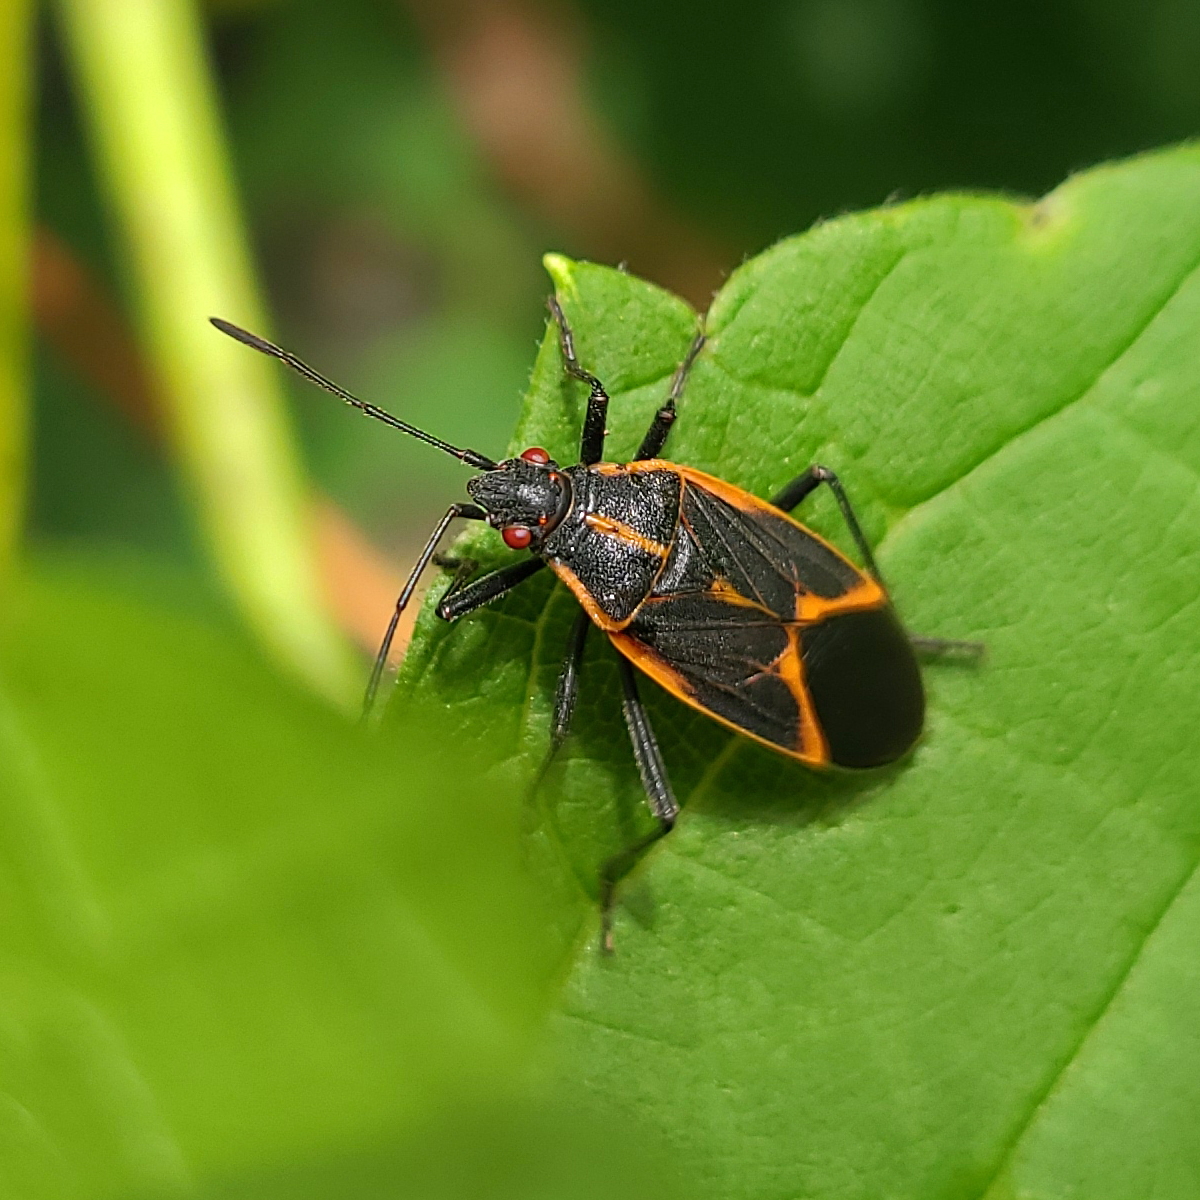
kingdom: Animalia
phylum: Arthropoda
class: Insecta
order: Hemiptera
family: Rhopalidae
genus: Boisea
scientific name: Boisea trivittata
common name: Boxelder bug
